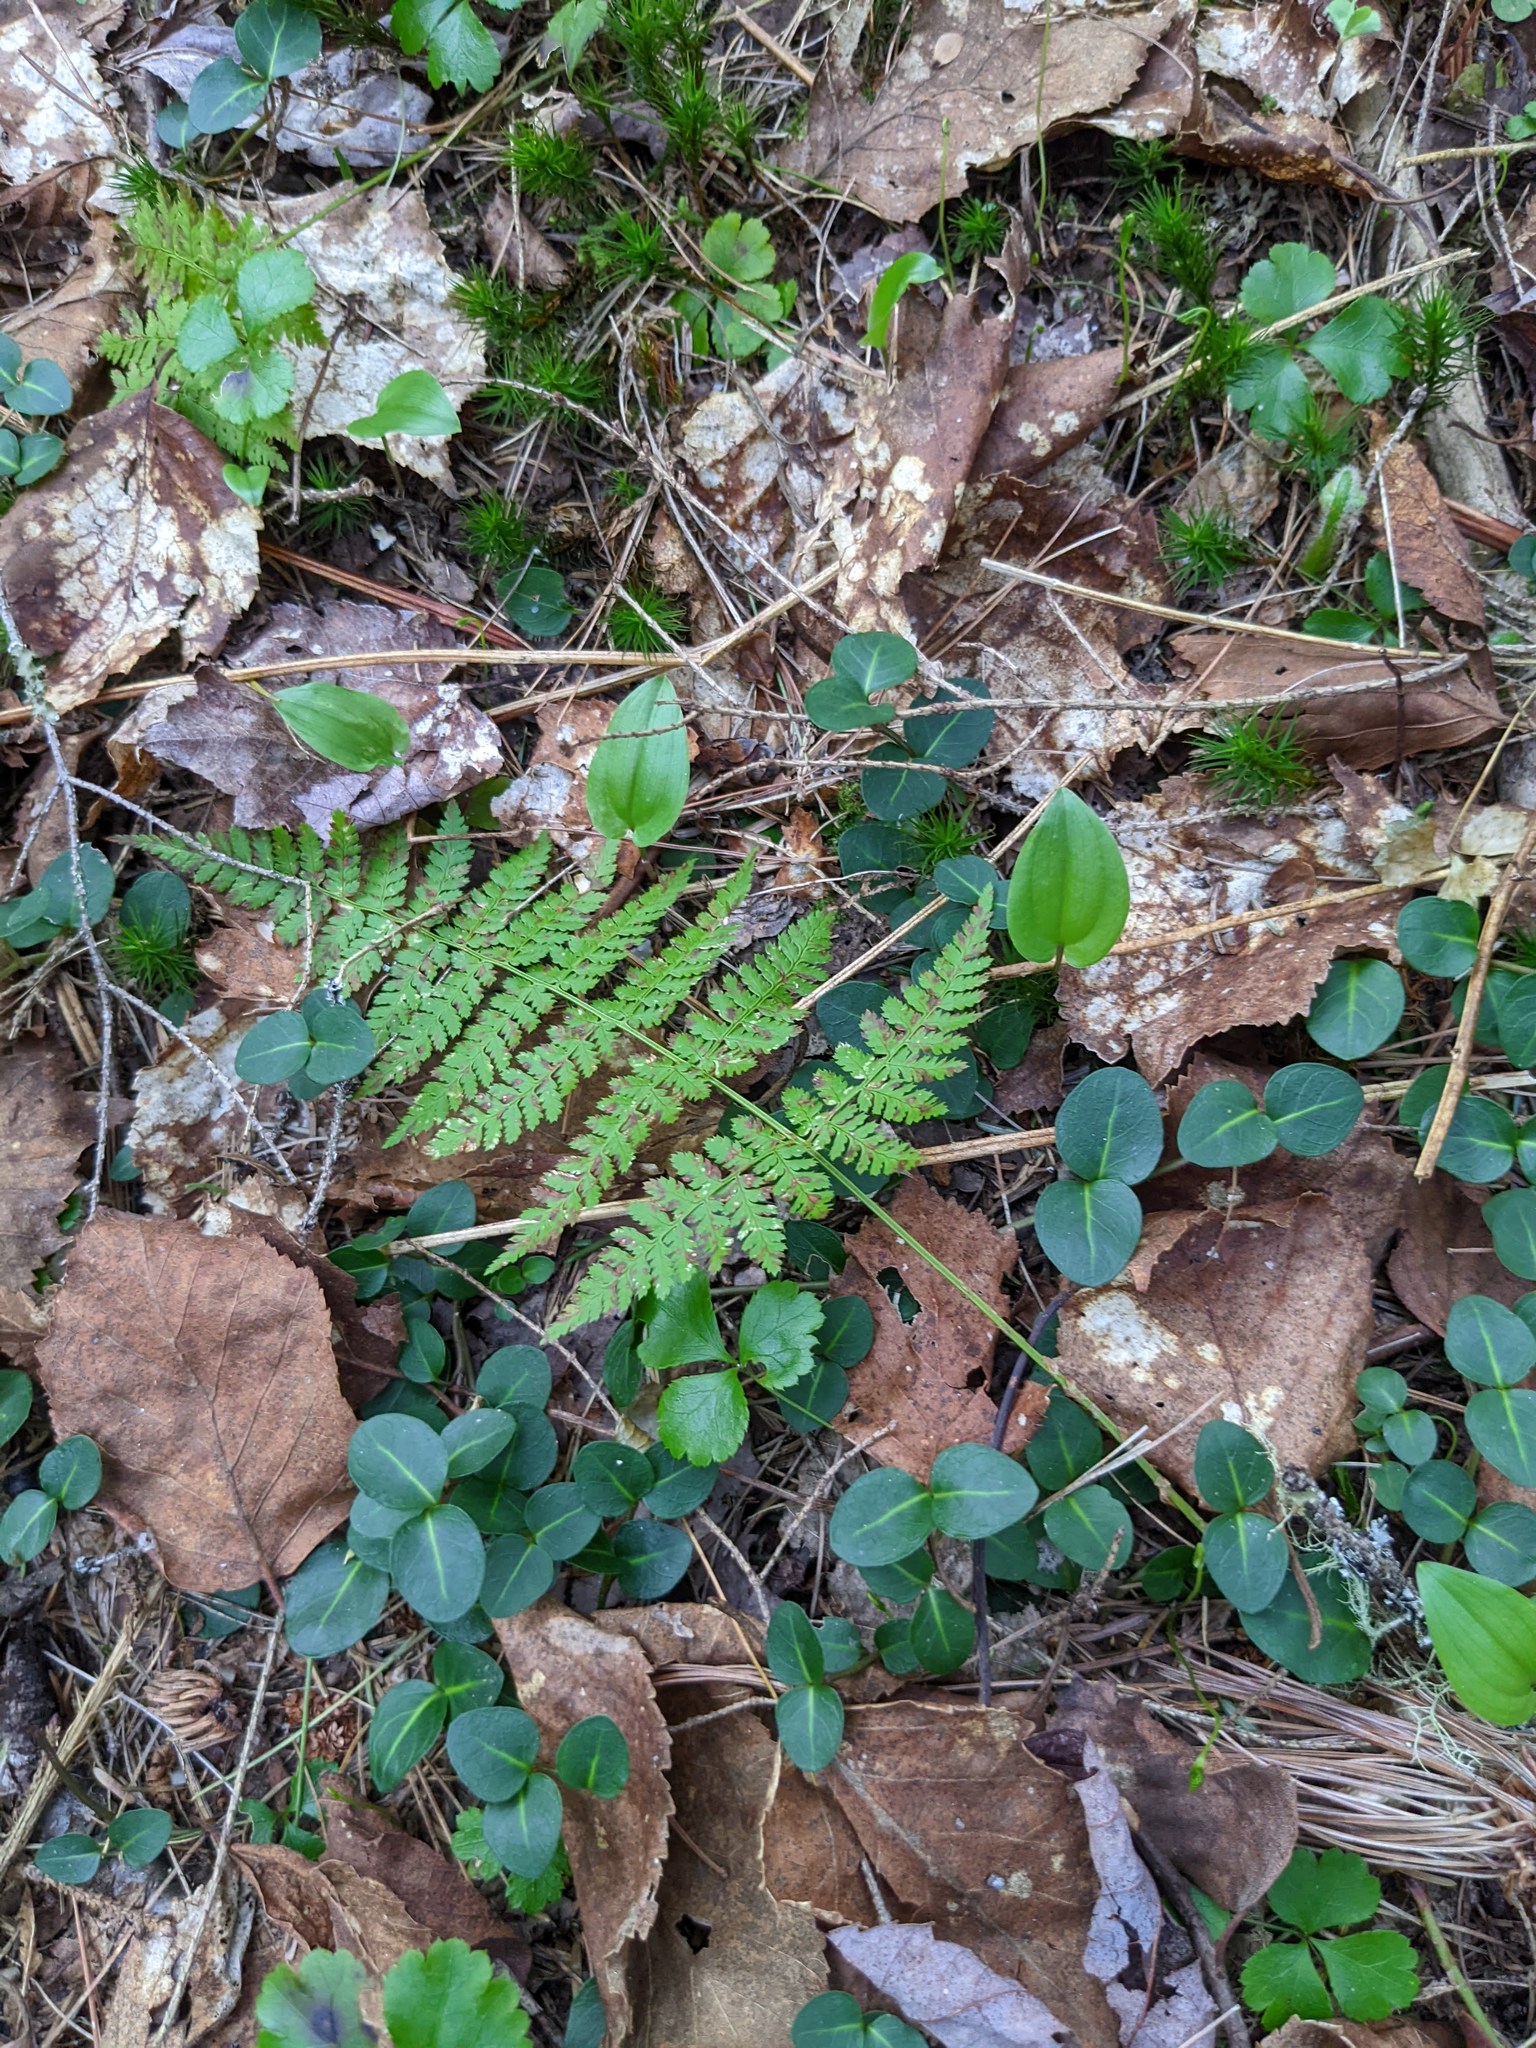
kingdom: Plantae
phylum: Tracheophyta
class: Liliopsida
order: Asparagales
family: Asparagaceae
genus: Maianthemum
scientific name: Maianthemum canadense
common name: False lily-of-the-valley
